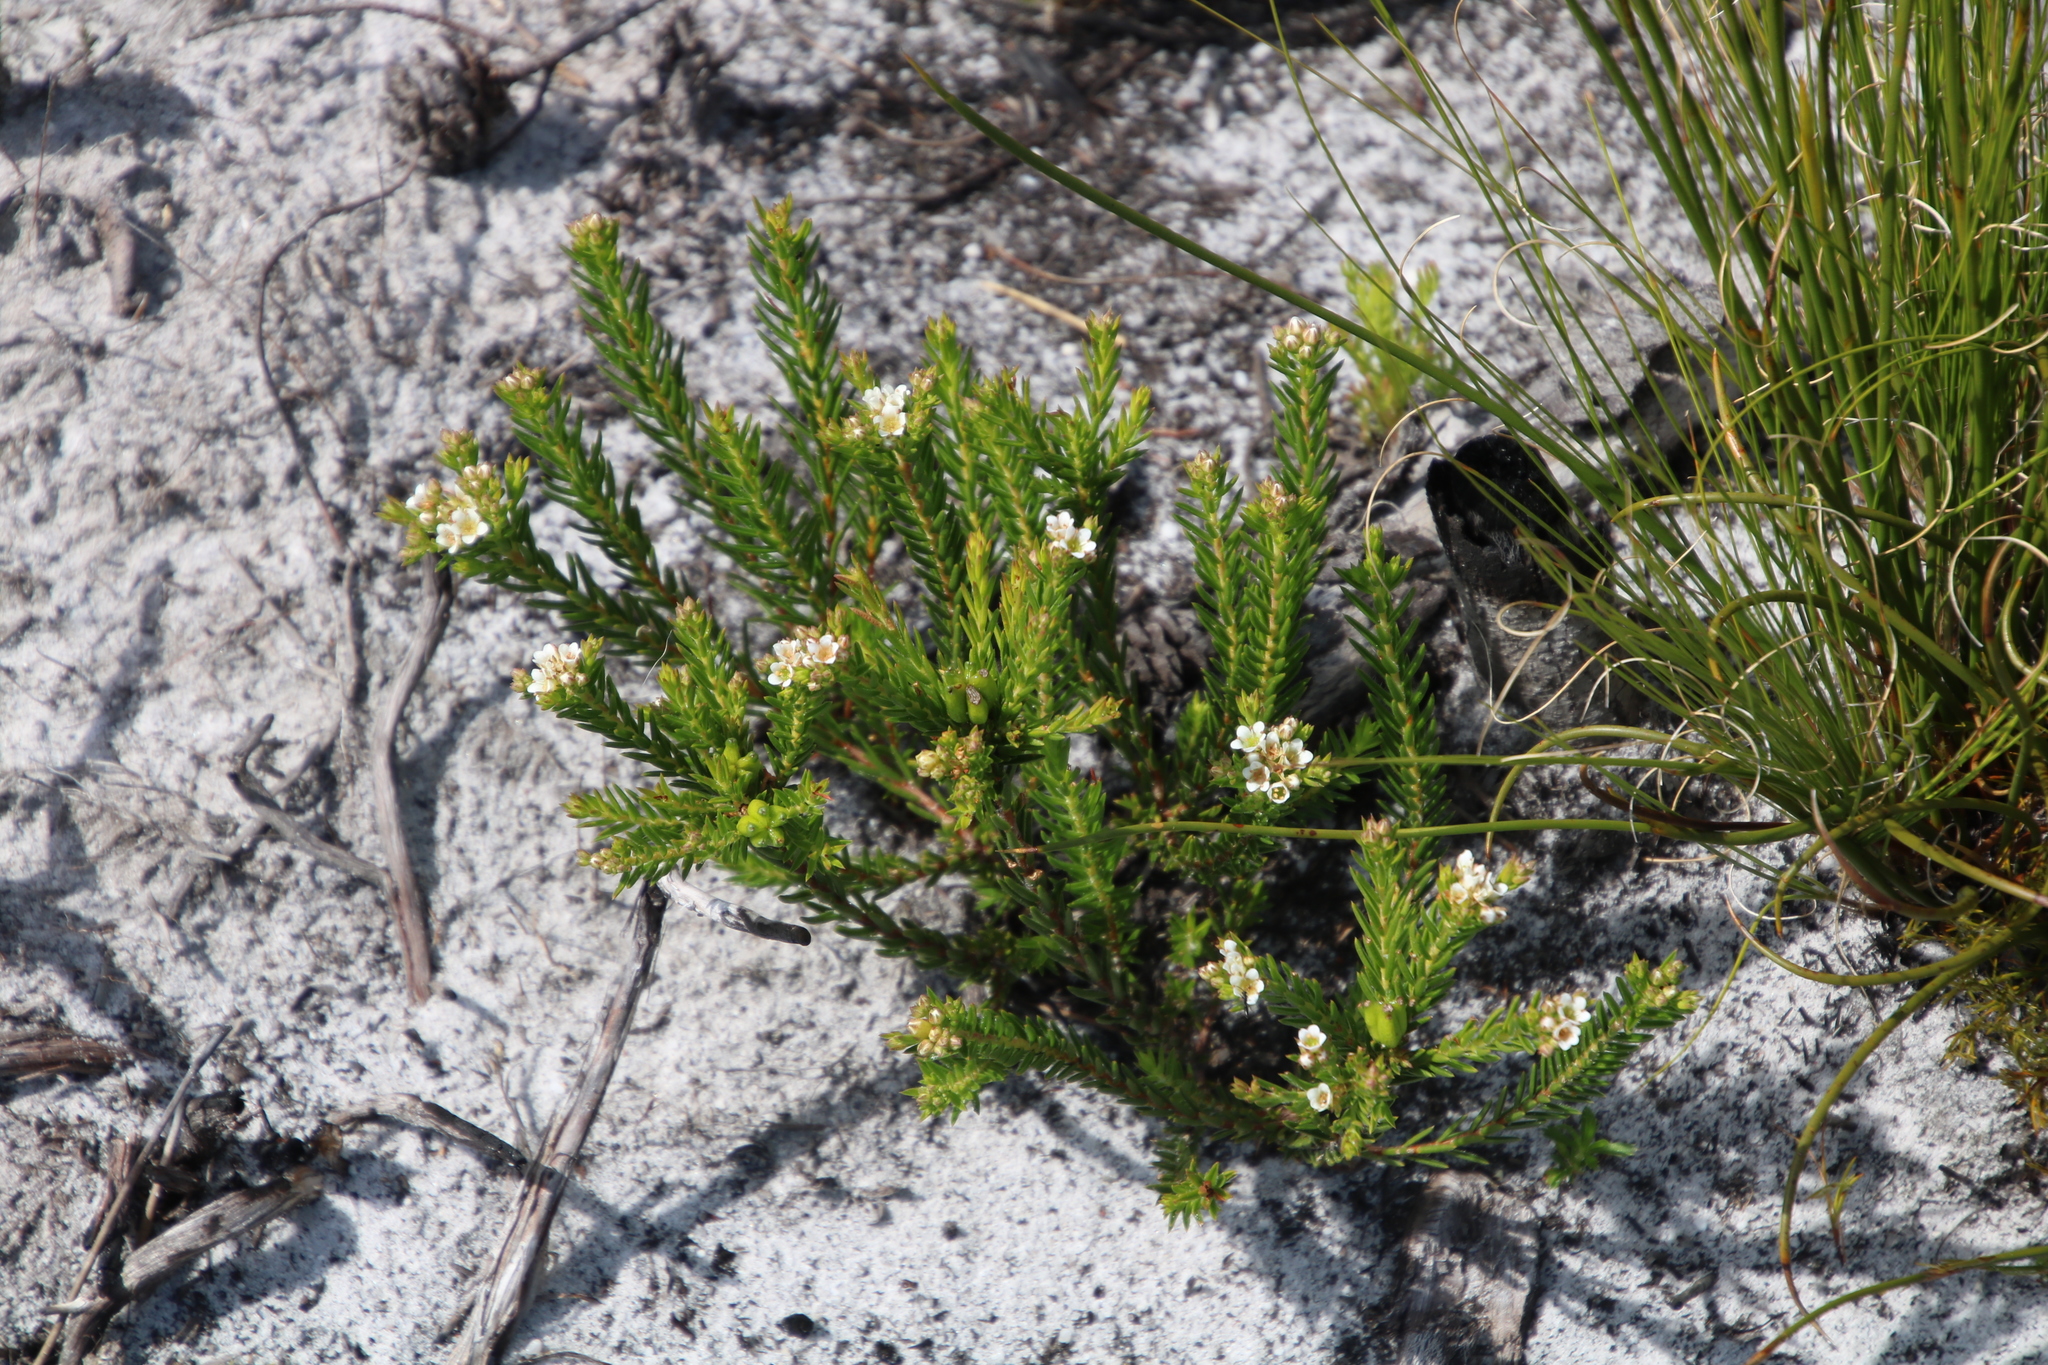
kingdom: Plantae
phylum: Tracheophyta
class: Magnoliopsida
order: Sapindales
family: Rutaceae
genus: Diosma
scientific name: Diosma oppositifolia
